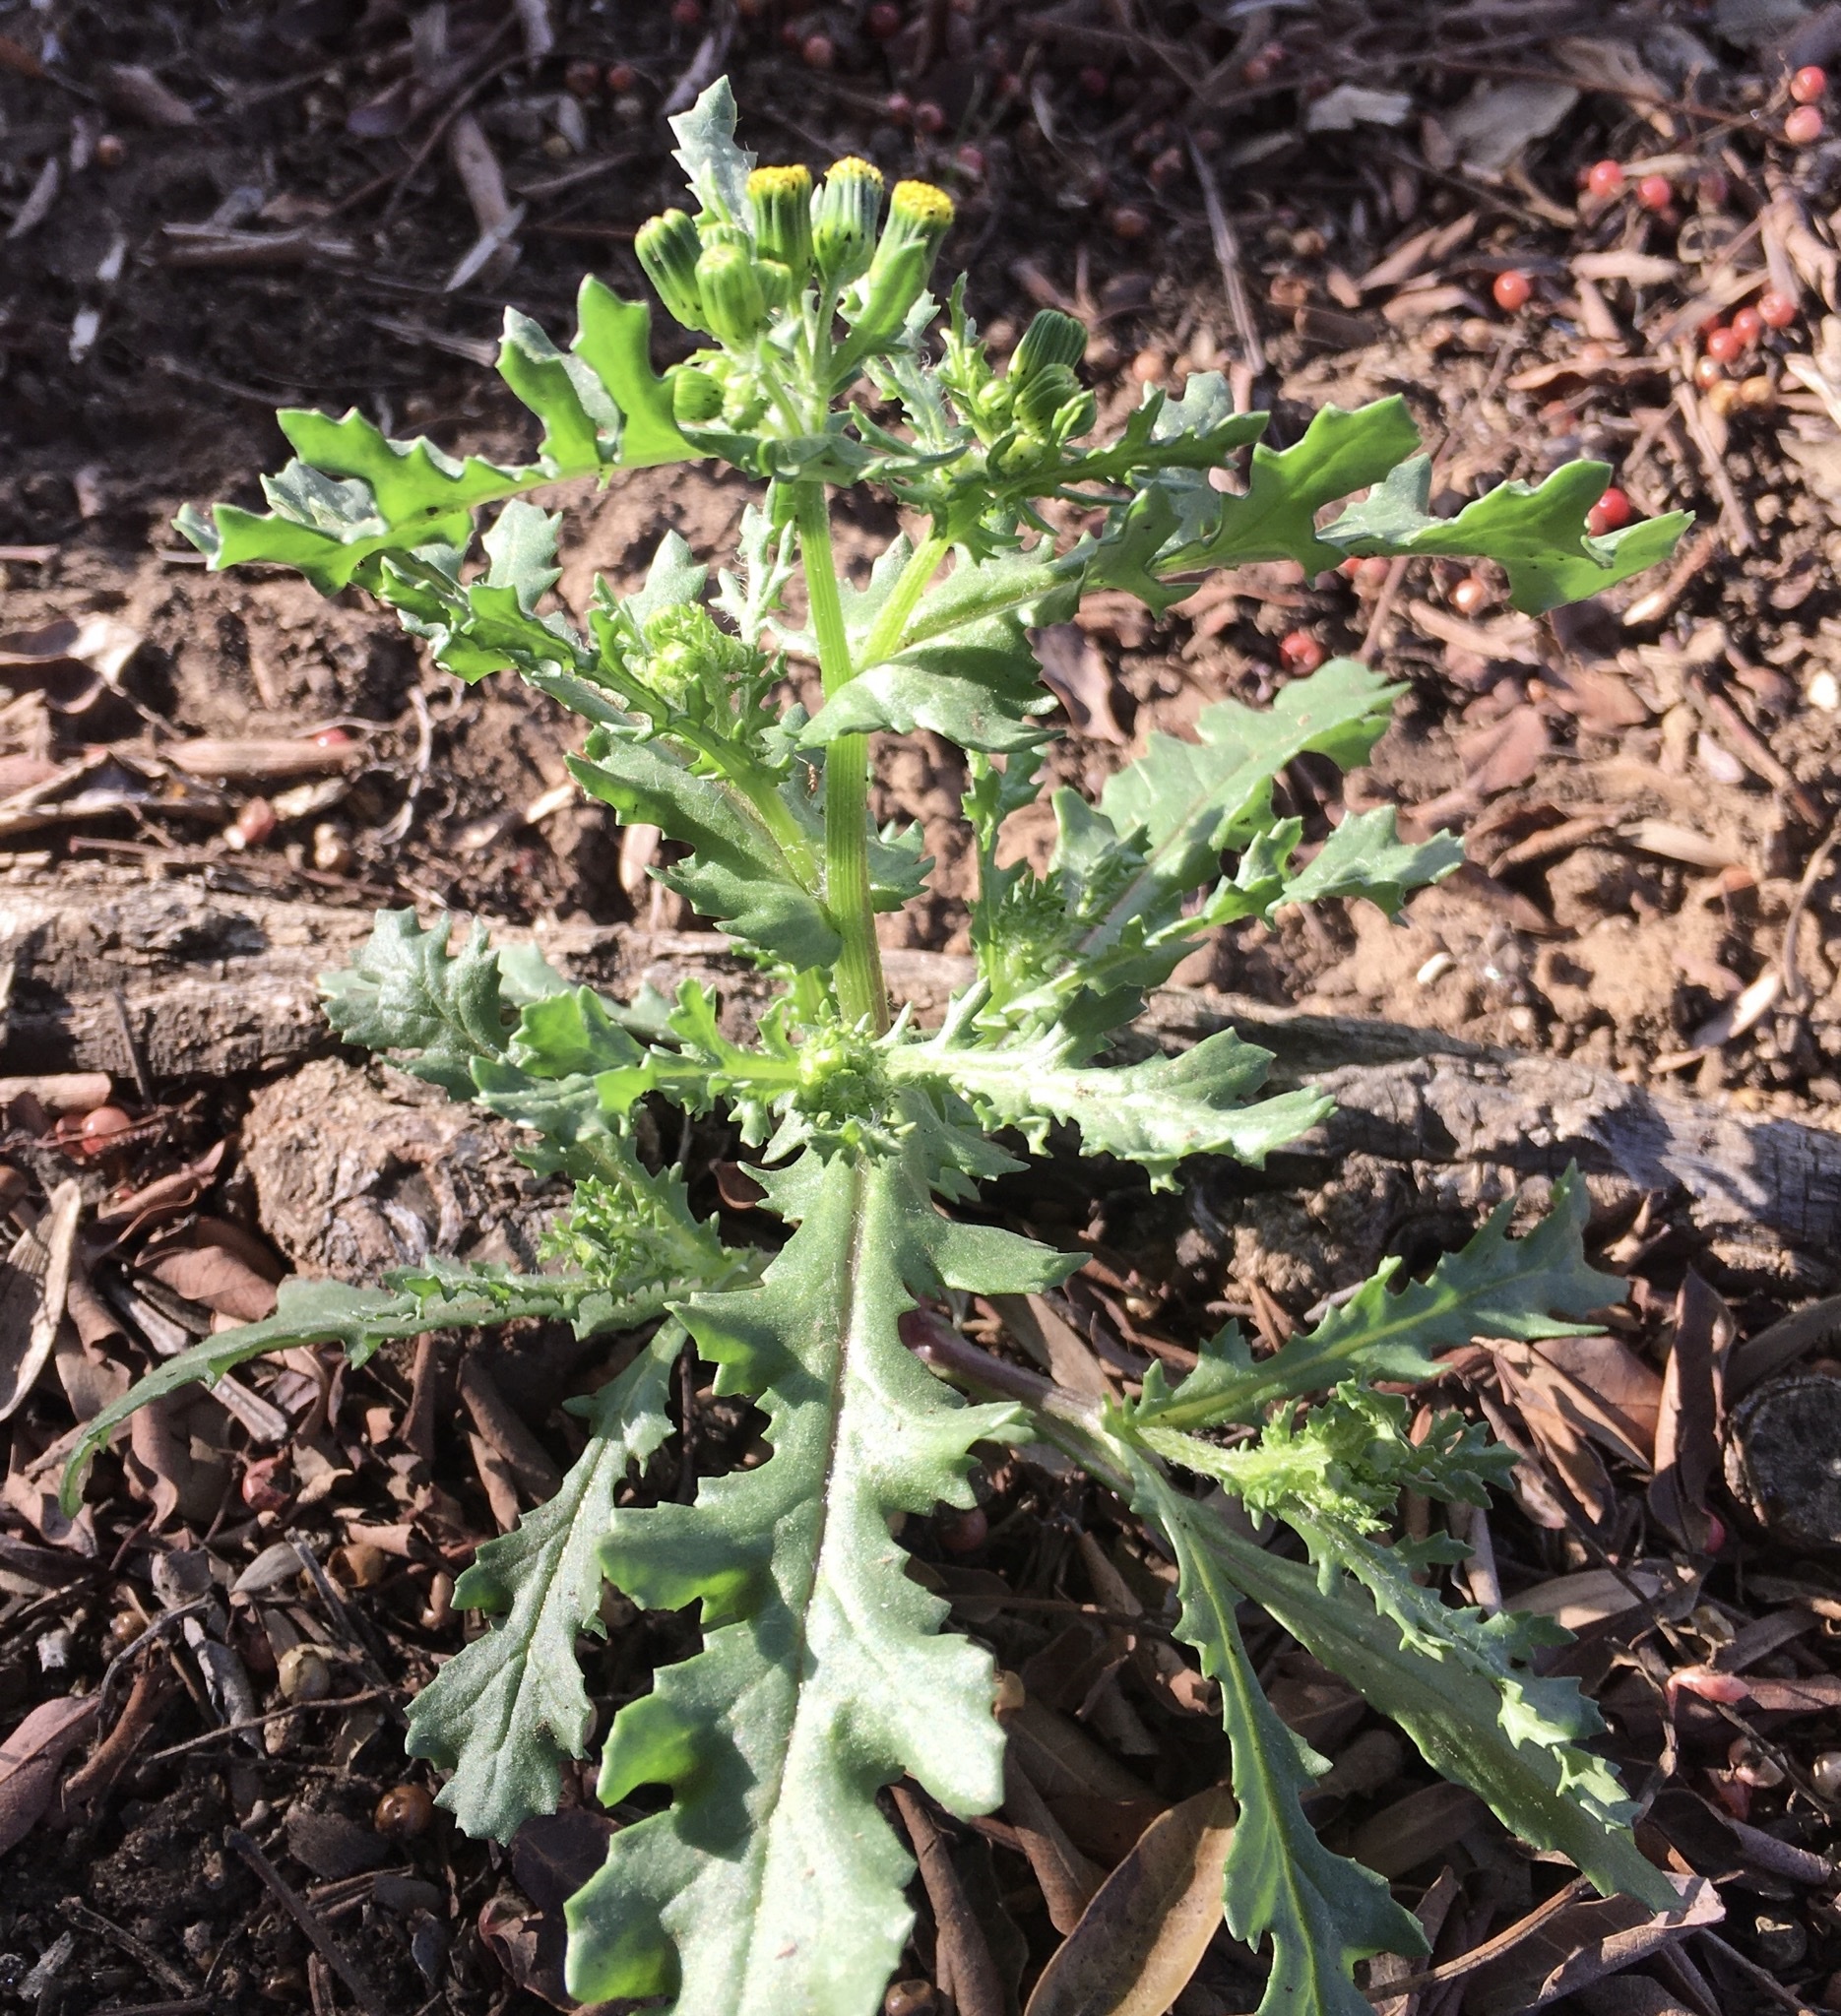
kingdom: Plantae
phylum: Tracheophyta
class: Magnoliopsida
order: Asterales
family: Asteraceae
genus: Senecio
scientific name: Senecio vulgaris
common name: Old-man-in-the-spring
